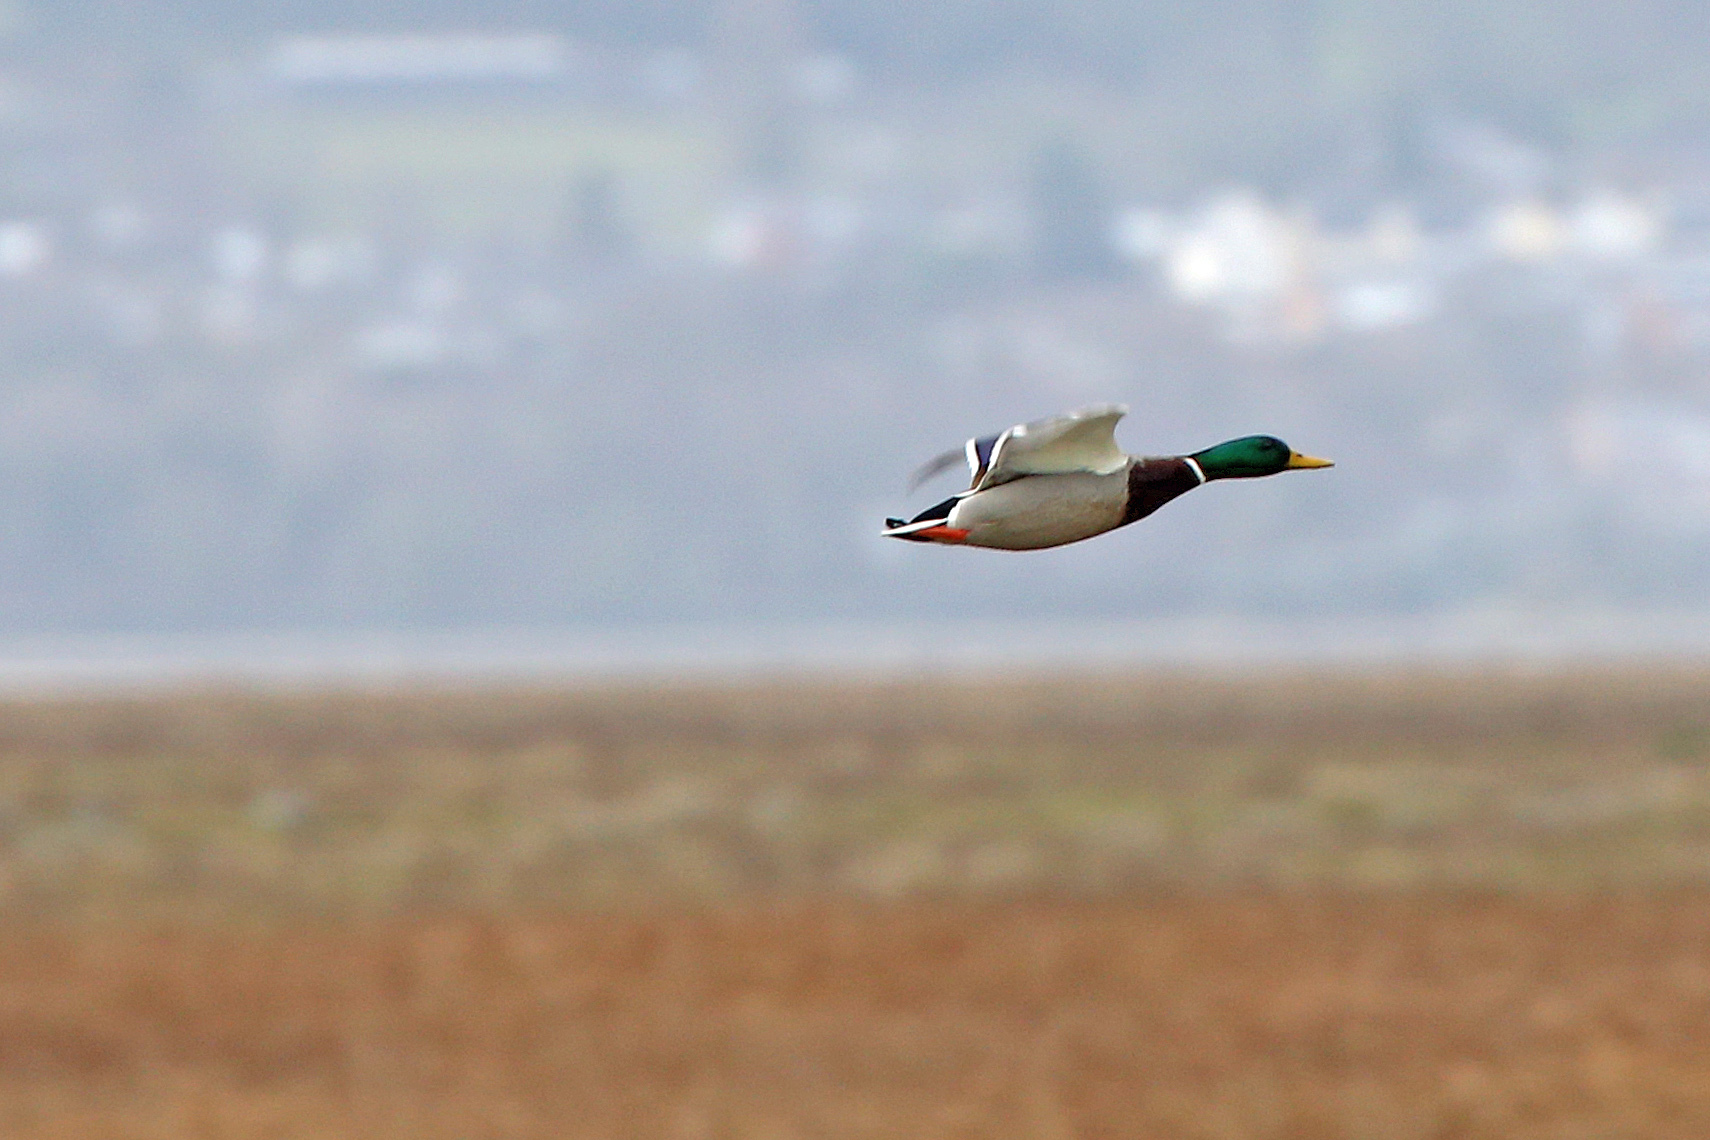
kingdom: Animalia
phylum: Chordata
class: Aves
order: Anseriformes
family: Anatidae
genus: Anas
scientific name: Anas platyrhynchos
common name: Mallard
